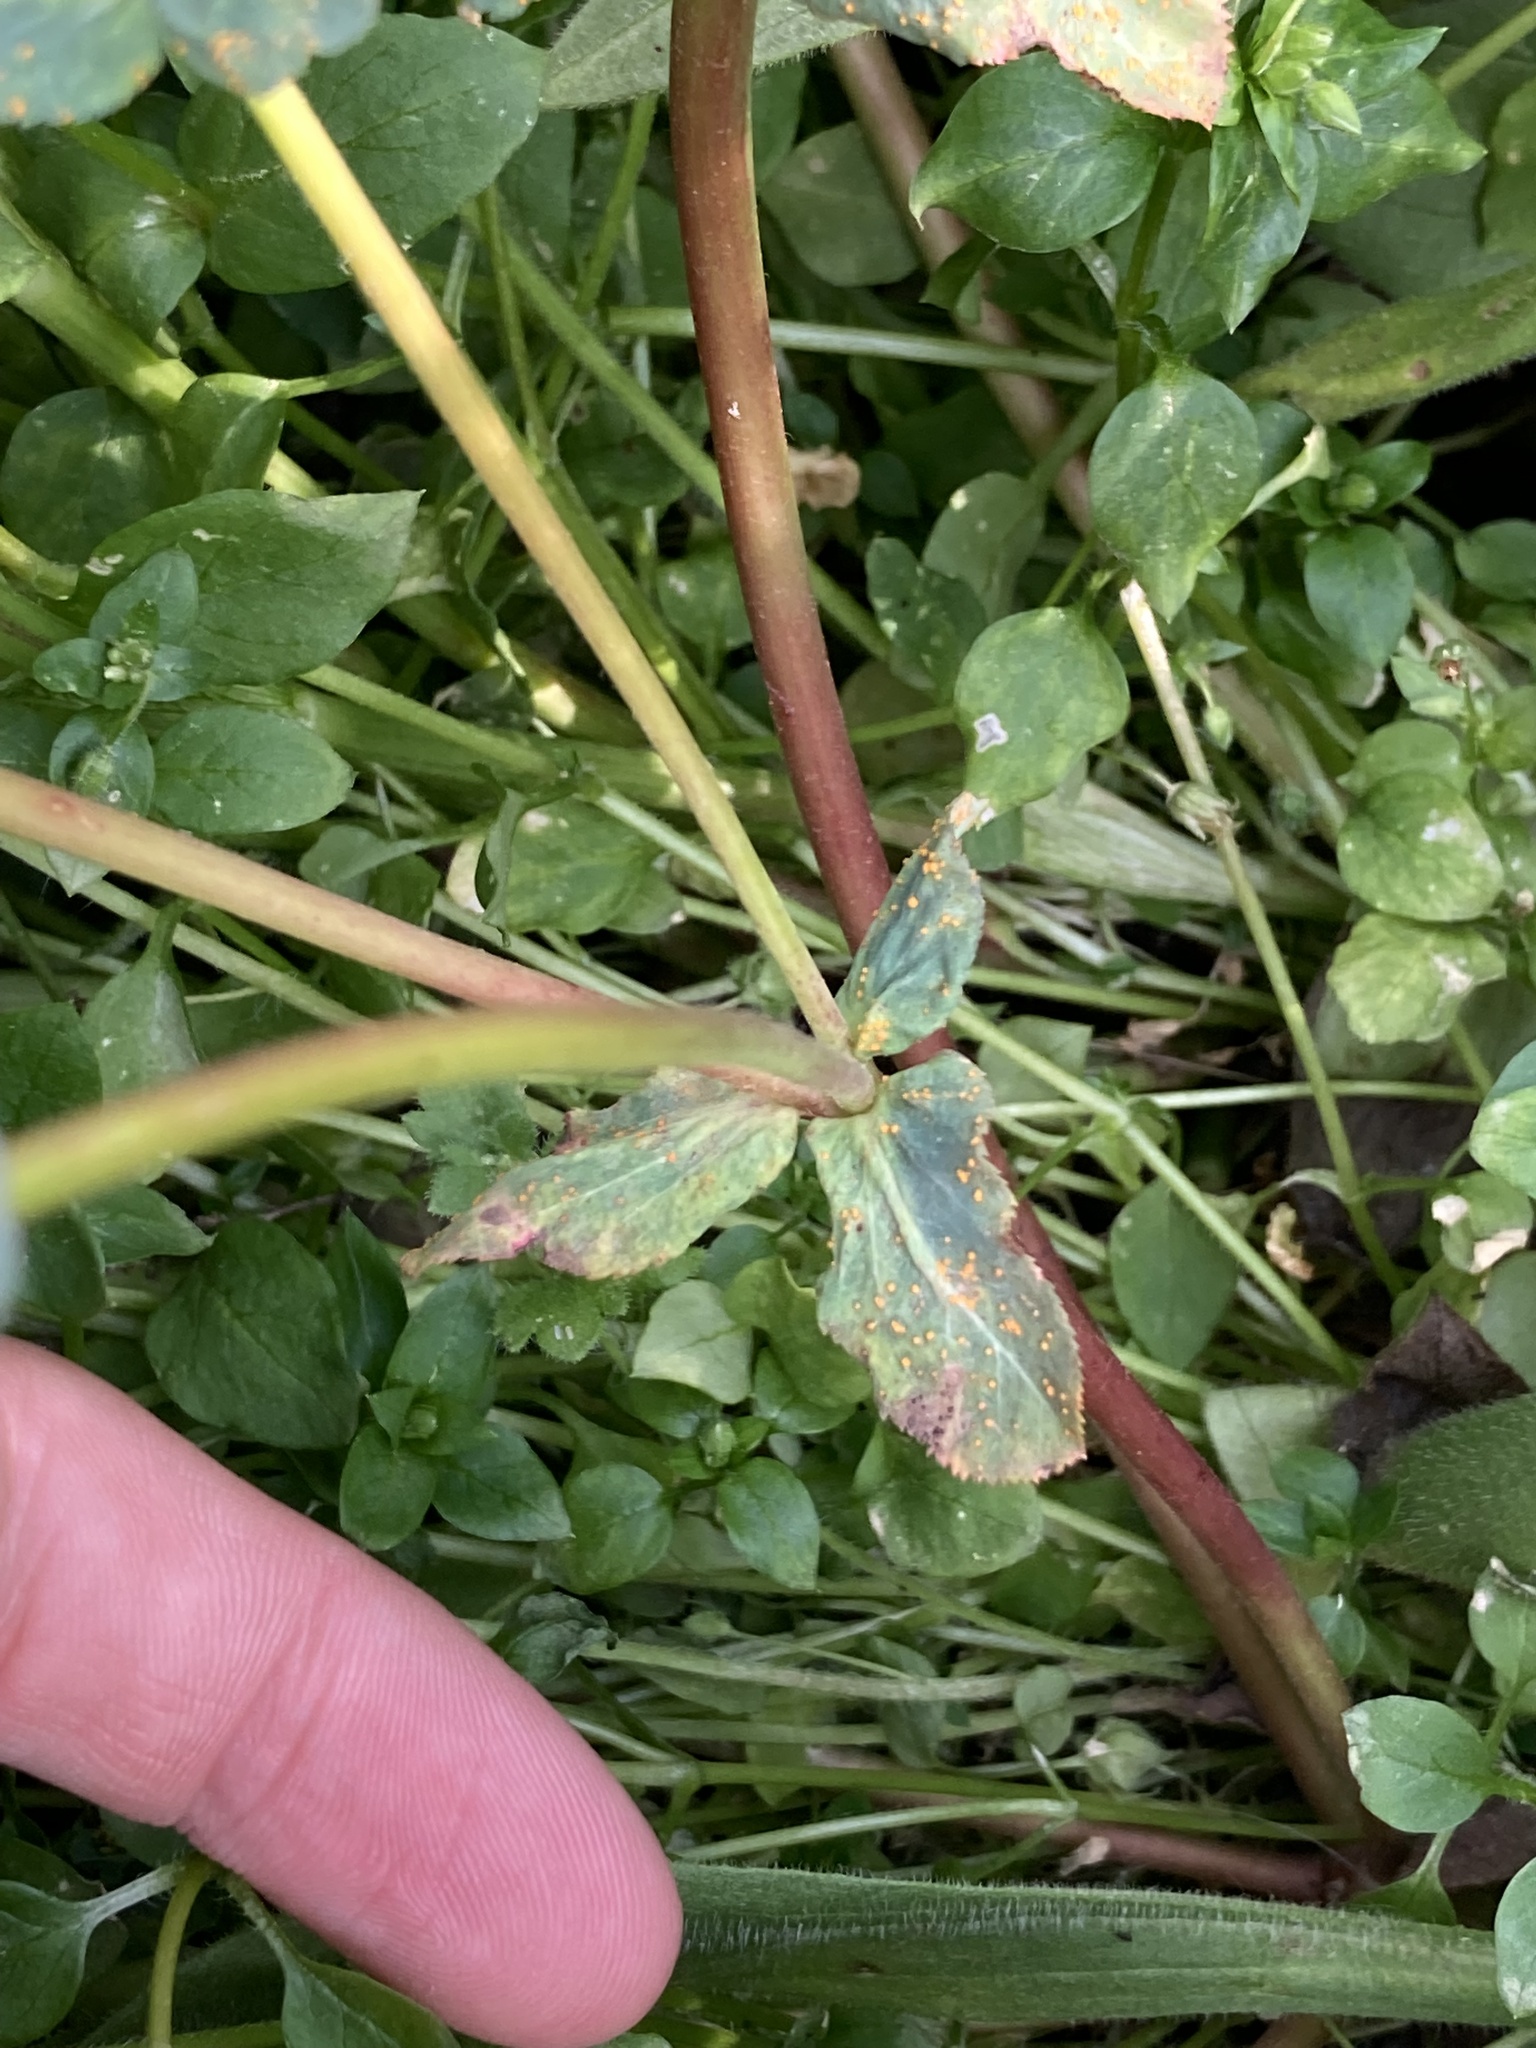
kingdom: Plantae
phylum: Tracheophyta
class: Magnoliopsida
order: Malpighiales
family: Euphorbiaceae
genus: Euphorbia
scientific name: Euphorbia helioscopia
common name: Sun spurge
